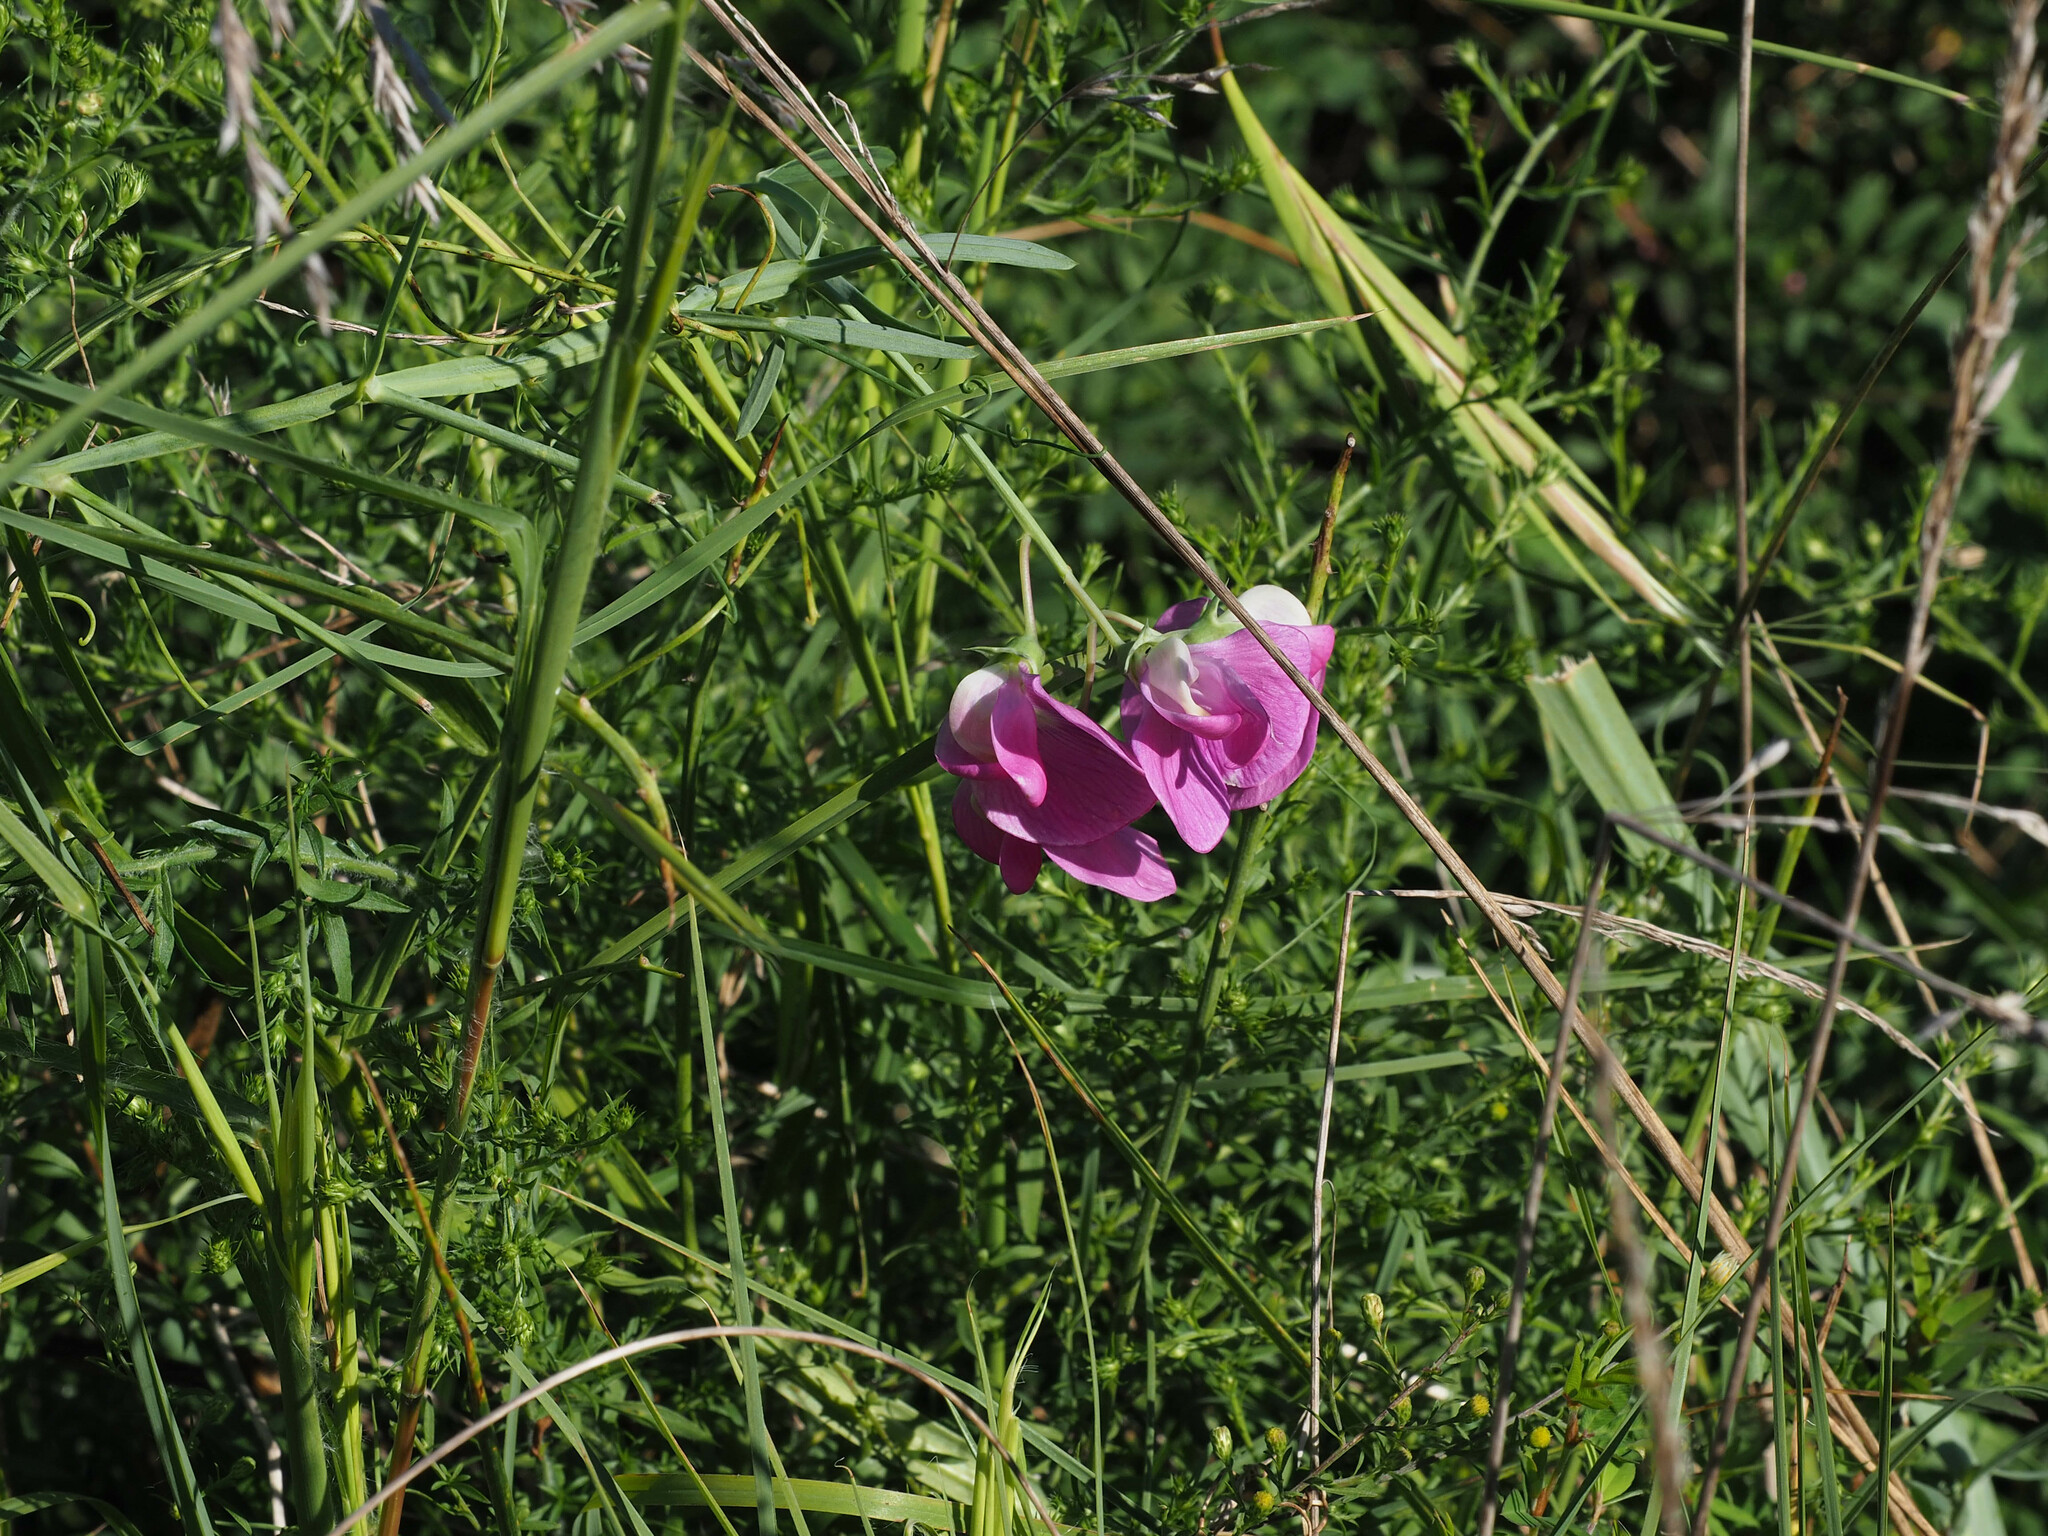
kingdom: Plantae
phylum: Tracheophyta
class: Magnoliopsida
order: Fabales
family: Fabaceae
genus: Lathyrus
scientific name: Lathyrus latifolius
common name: Perennial pea
